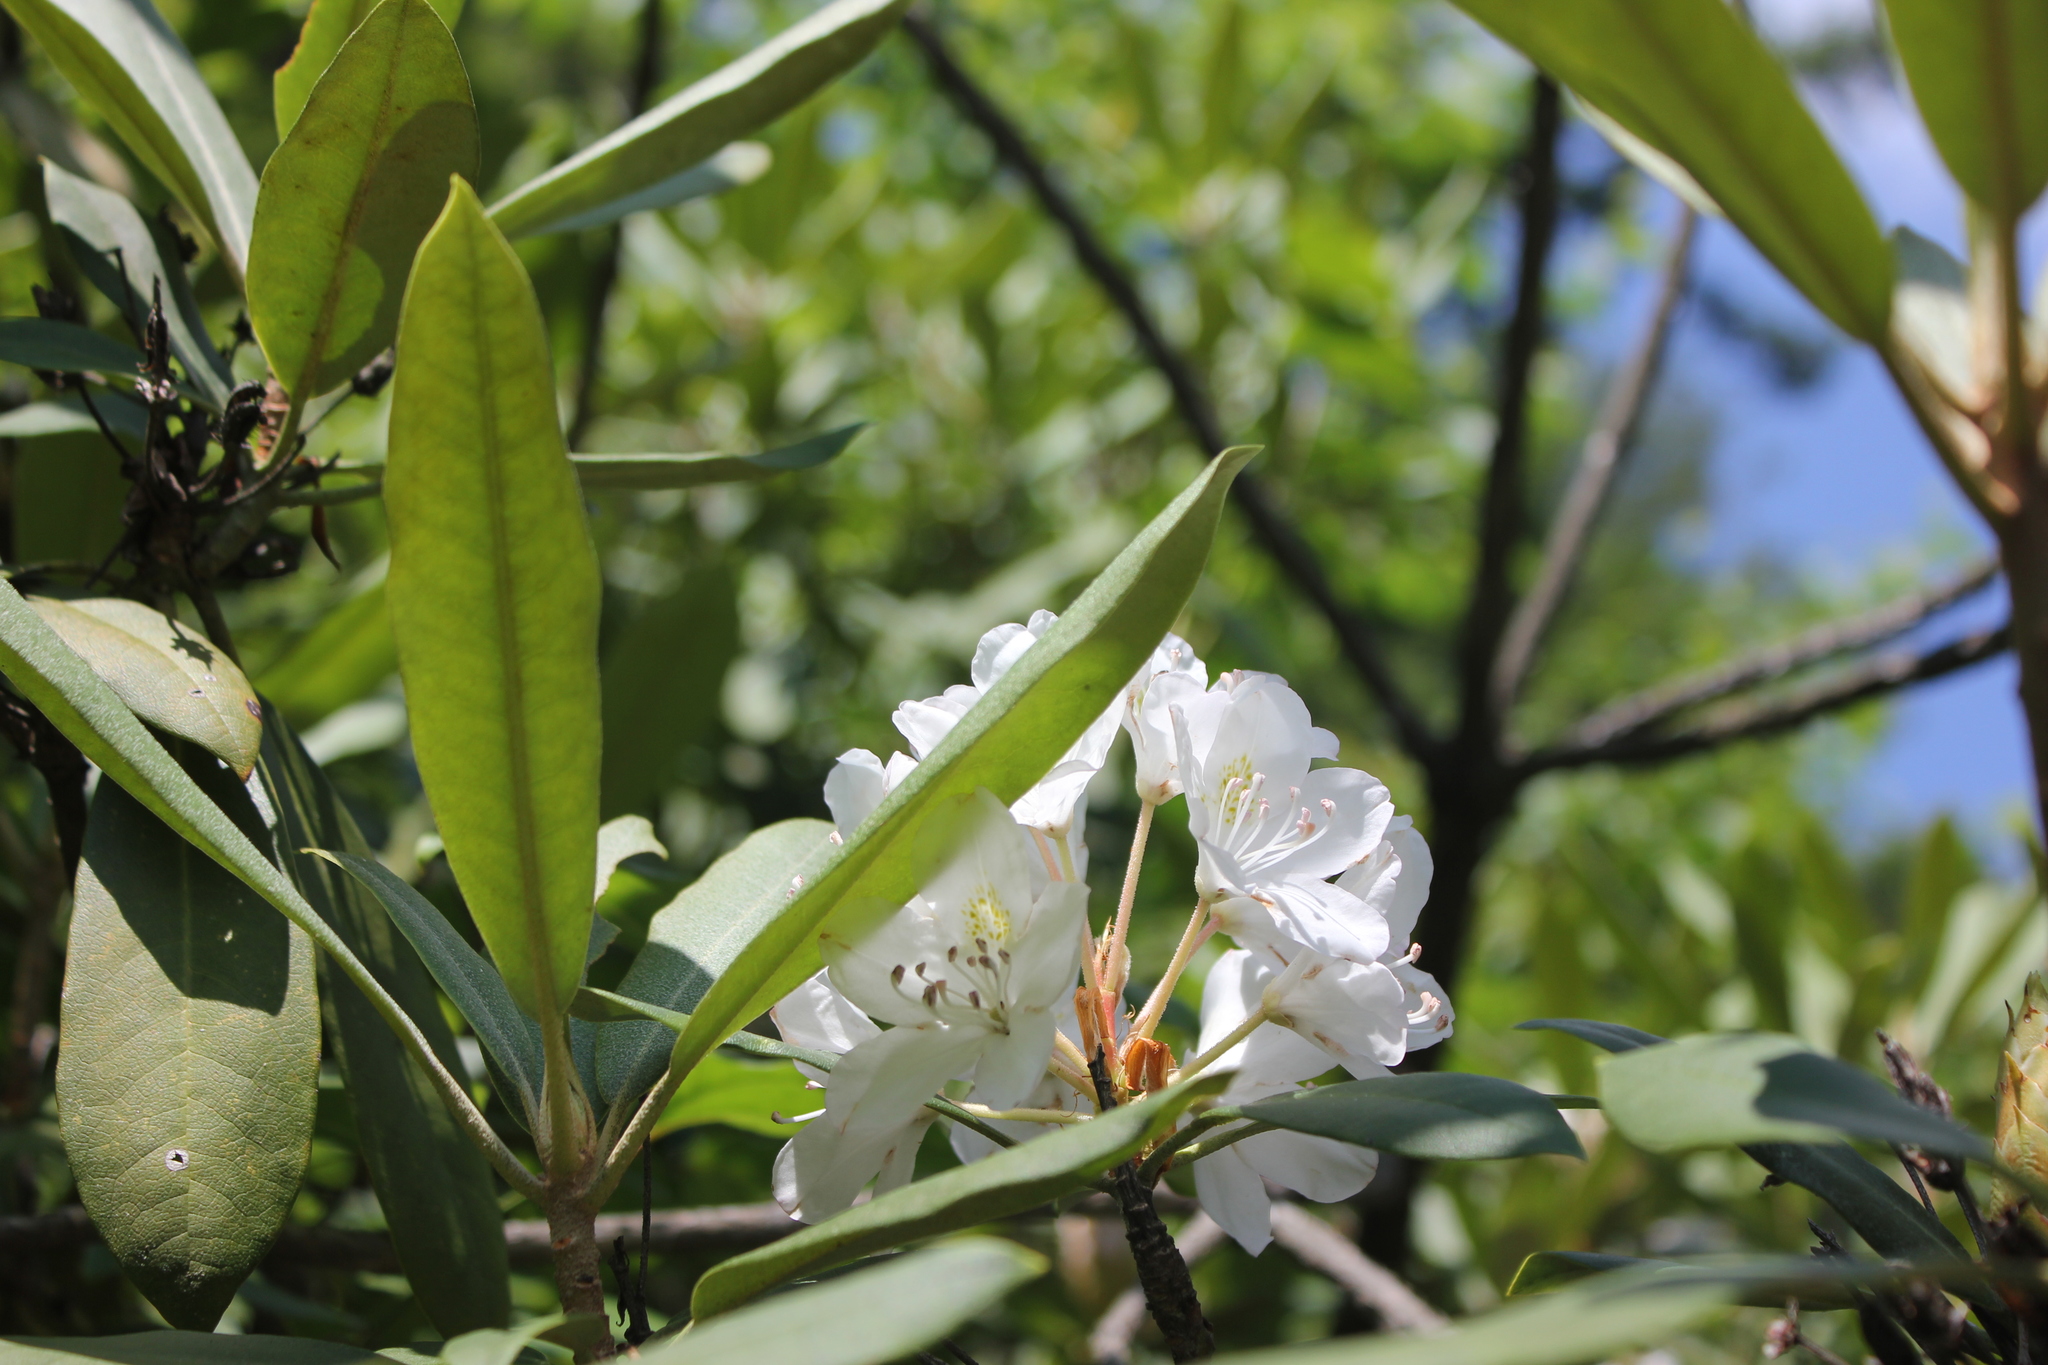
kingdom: Plantae
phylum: Tracheophyta
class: Magnoliopsida
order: Ericales
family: Ericaceae
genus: Rhododendron
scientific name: Rhododendron maximum
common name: Great rhododendron
